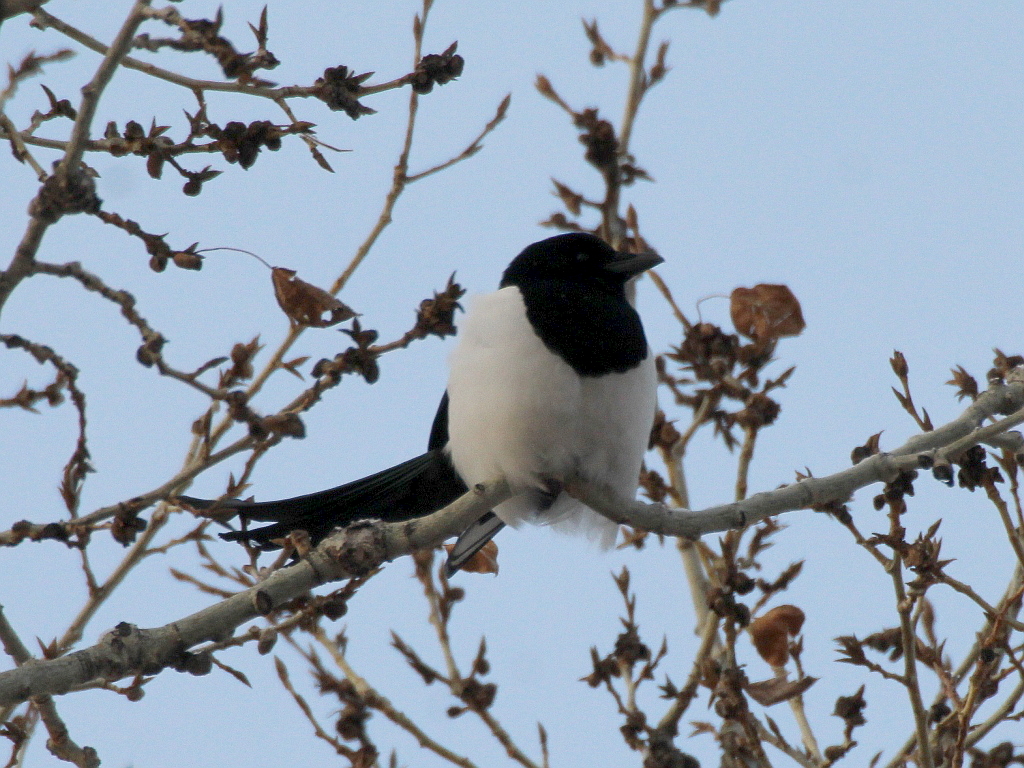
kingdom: Animalia
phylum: Chordata
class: Aves
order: Passeriformes
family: Corvidae
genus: Pica
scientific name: Pica pica
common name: Eurasian magpie
